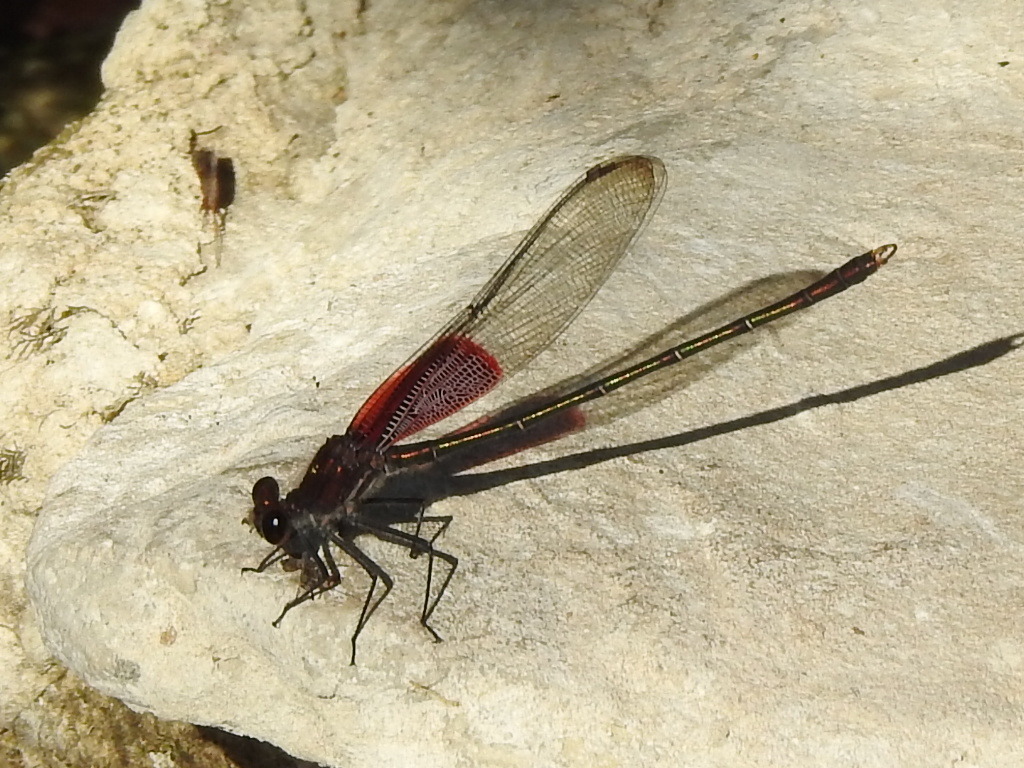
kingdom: Animalia
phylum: Arthropoda
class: Insecta
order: Odonata
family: Calopterygidae
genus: Hetaerina
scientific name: Hetaerina americana
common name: American rubyspot
